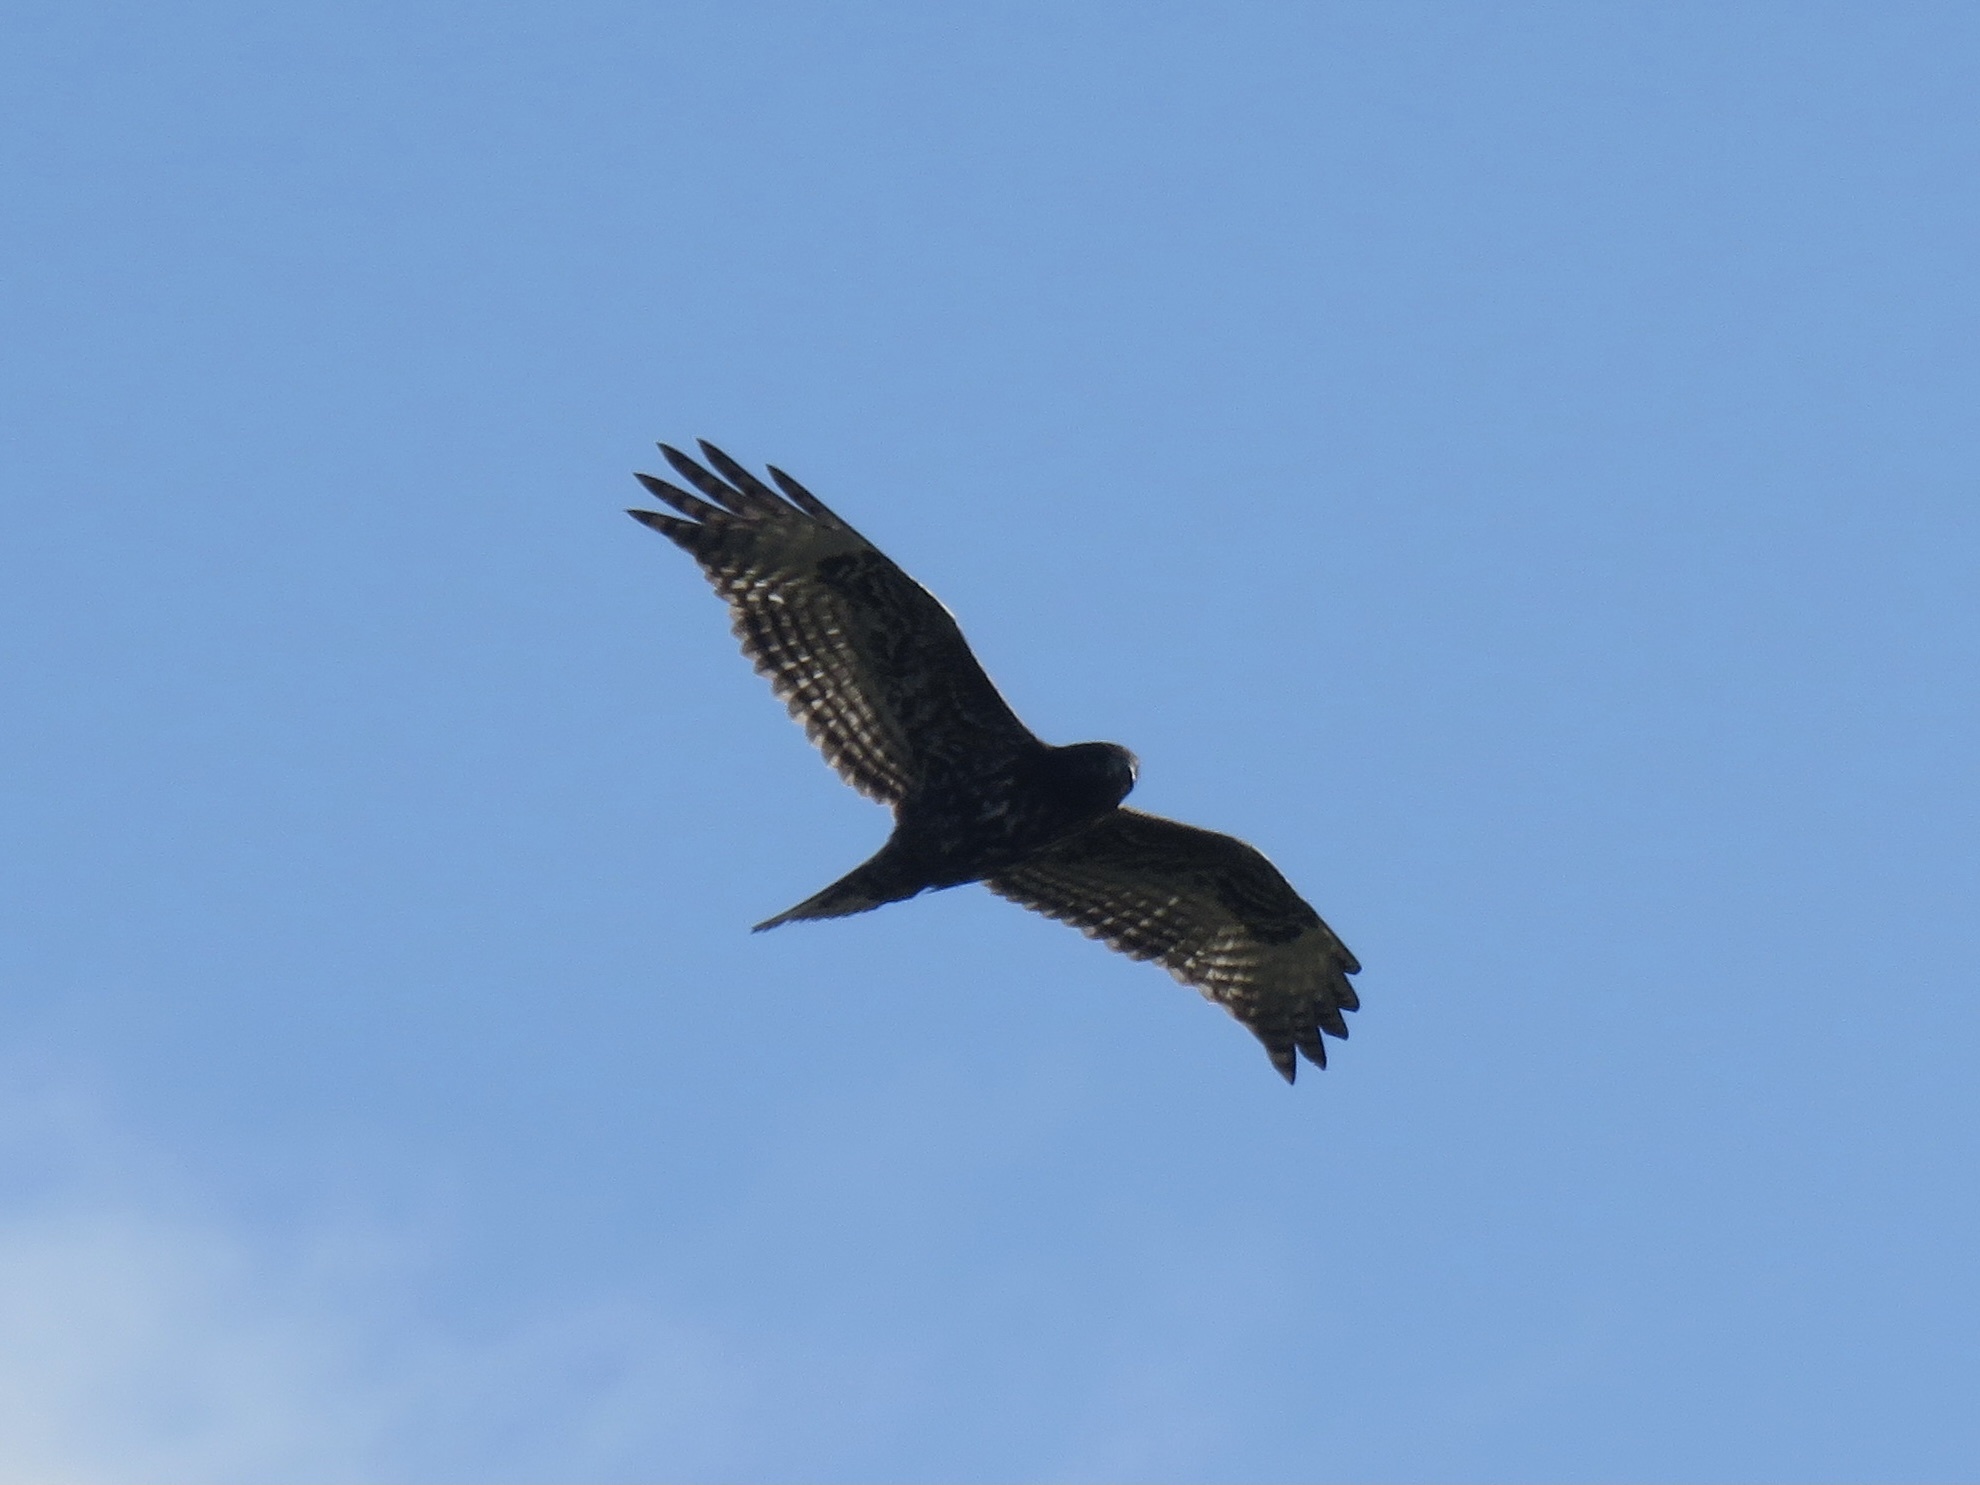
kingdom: Animalia
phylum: Chordata
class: Aves
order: Accipitriformes
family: Accipitridae
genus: Buteo
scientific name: Buteo jamaicensis
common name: Red-tailed hawk
